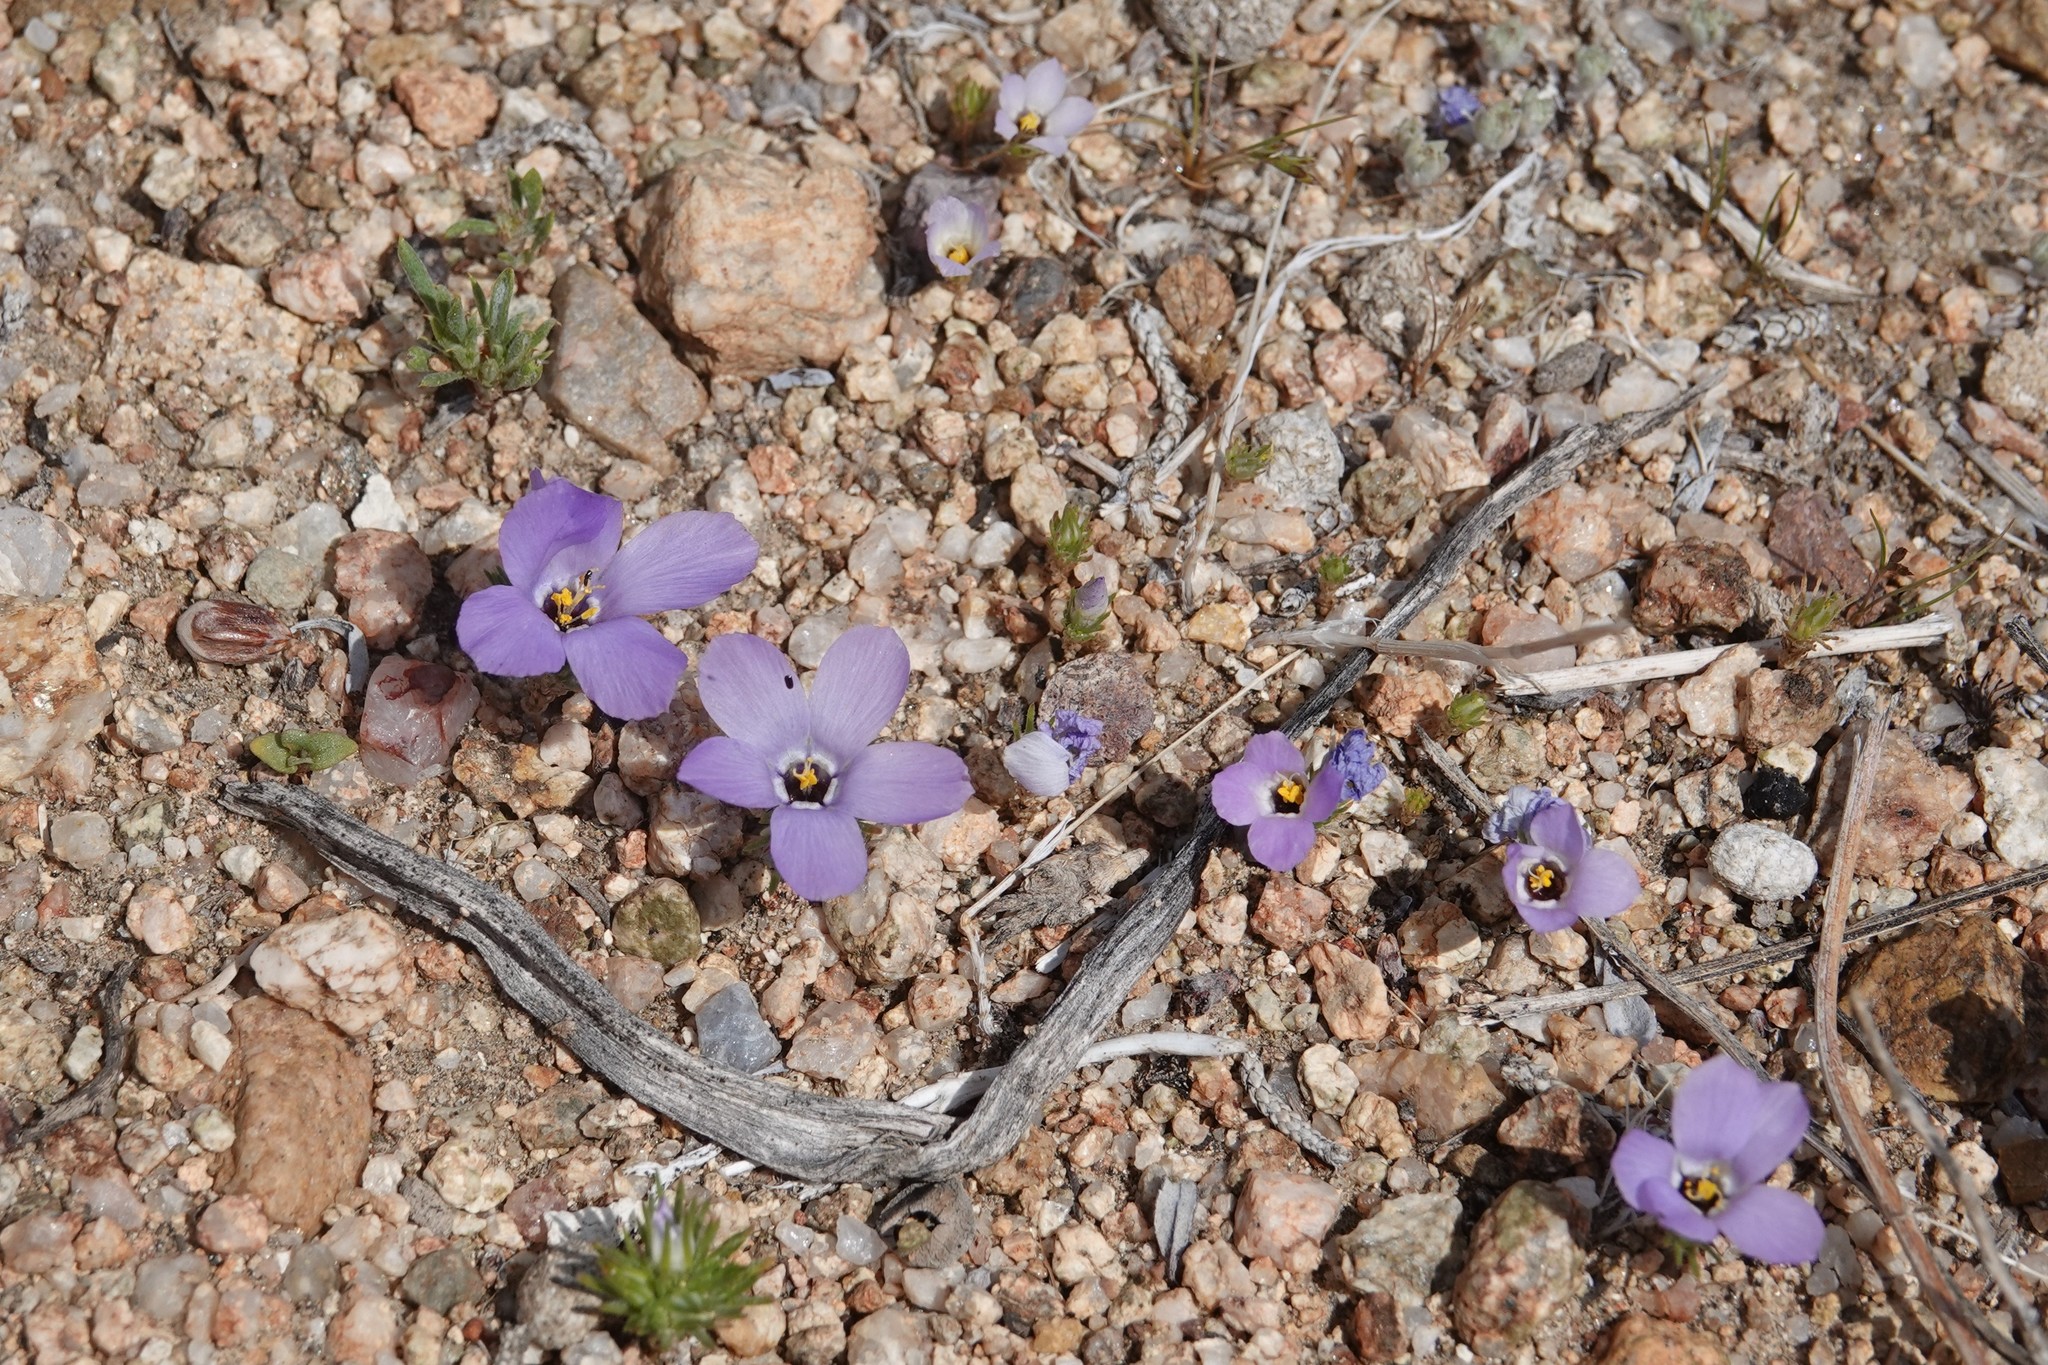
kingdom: Plantae
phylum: Tracheophyta
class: Magnoliopsida
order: Ericales
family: Polemoniaceae
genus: Linanthus
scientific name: Linanthus parryae
